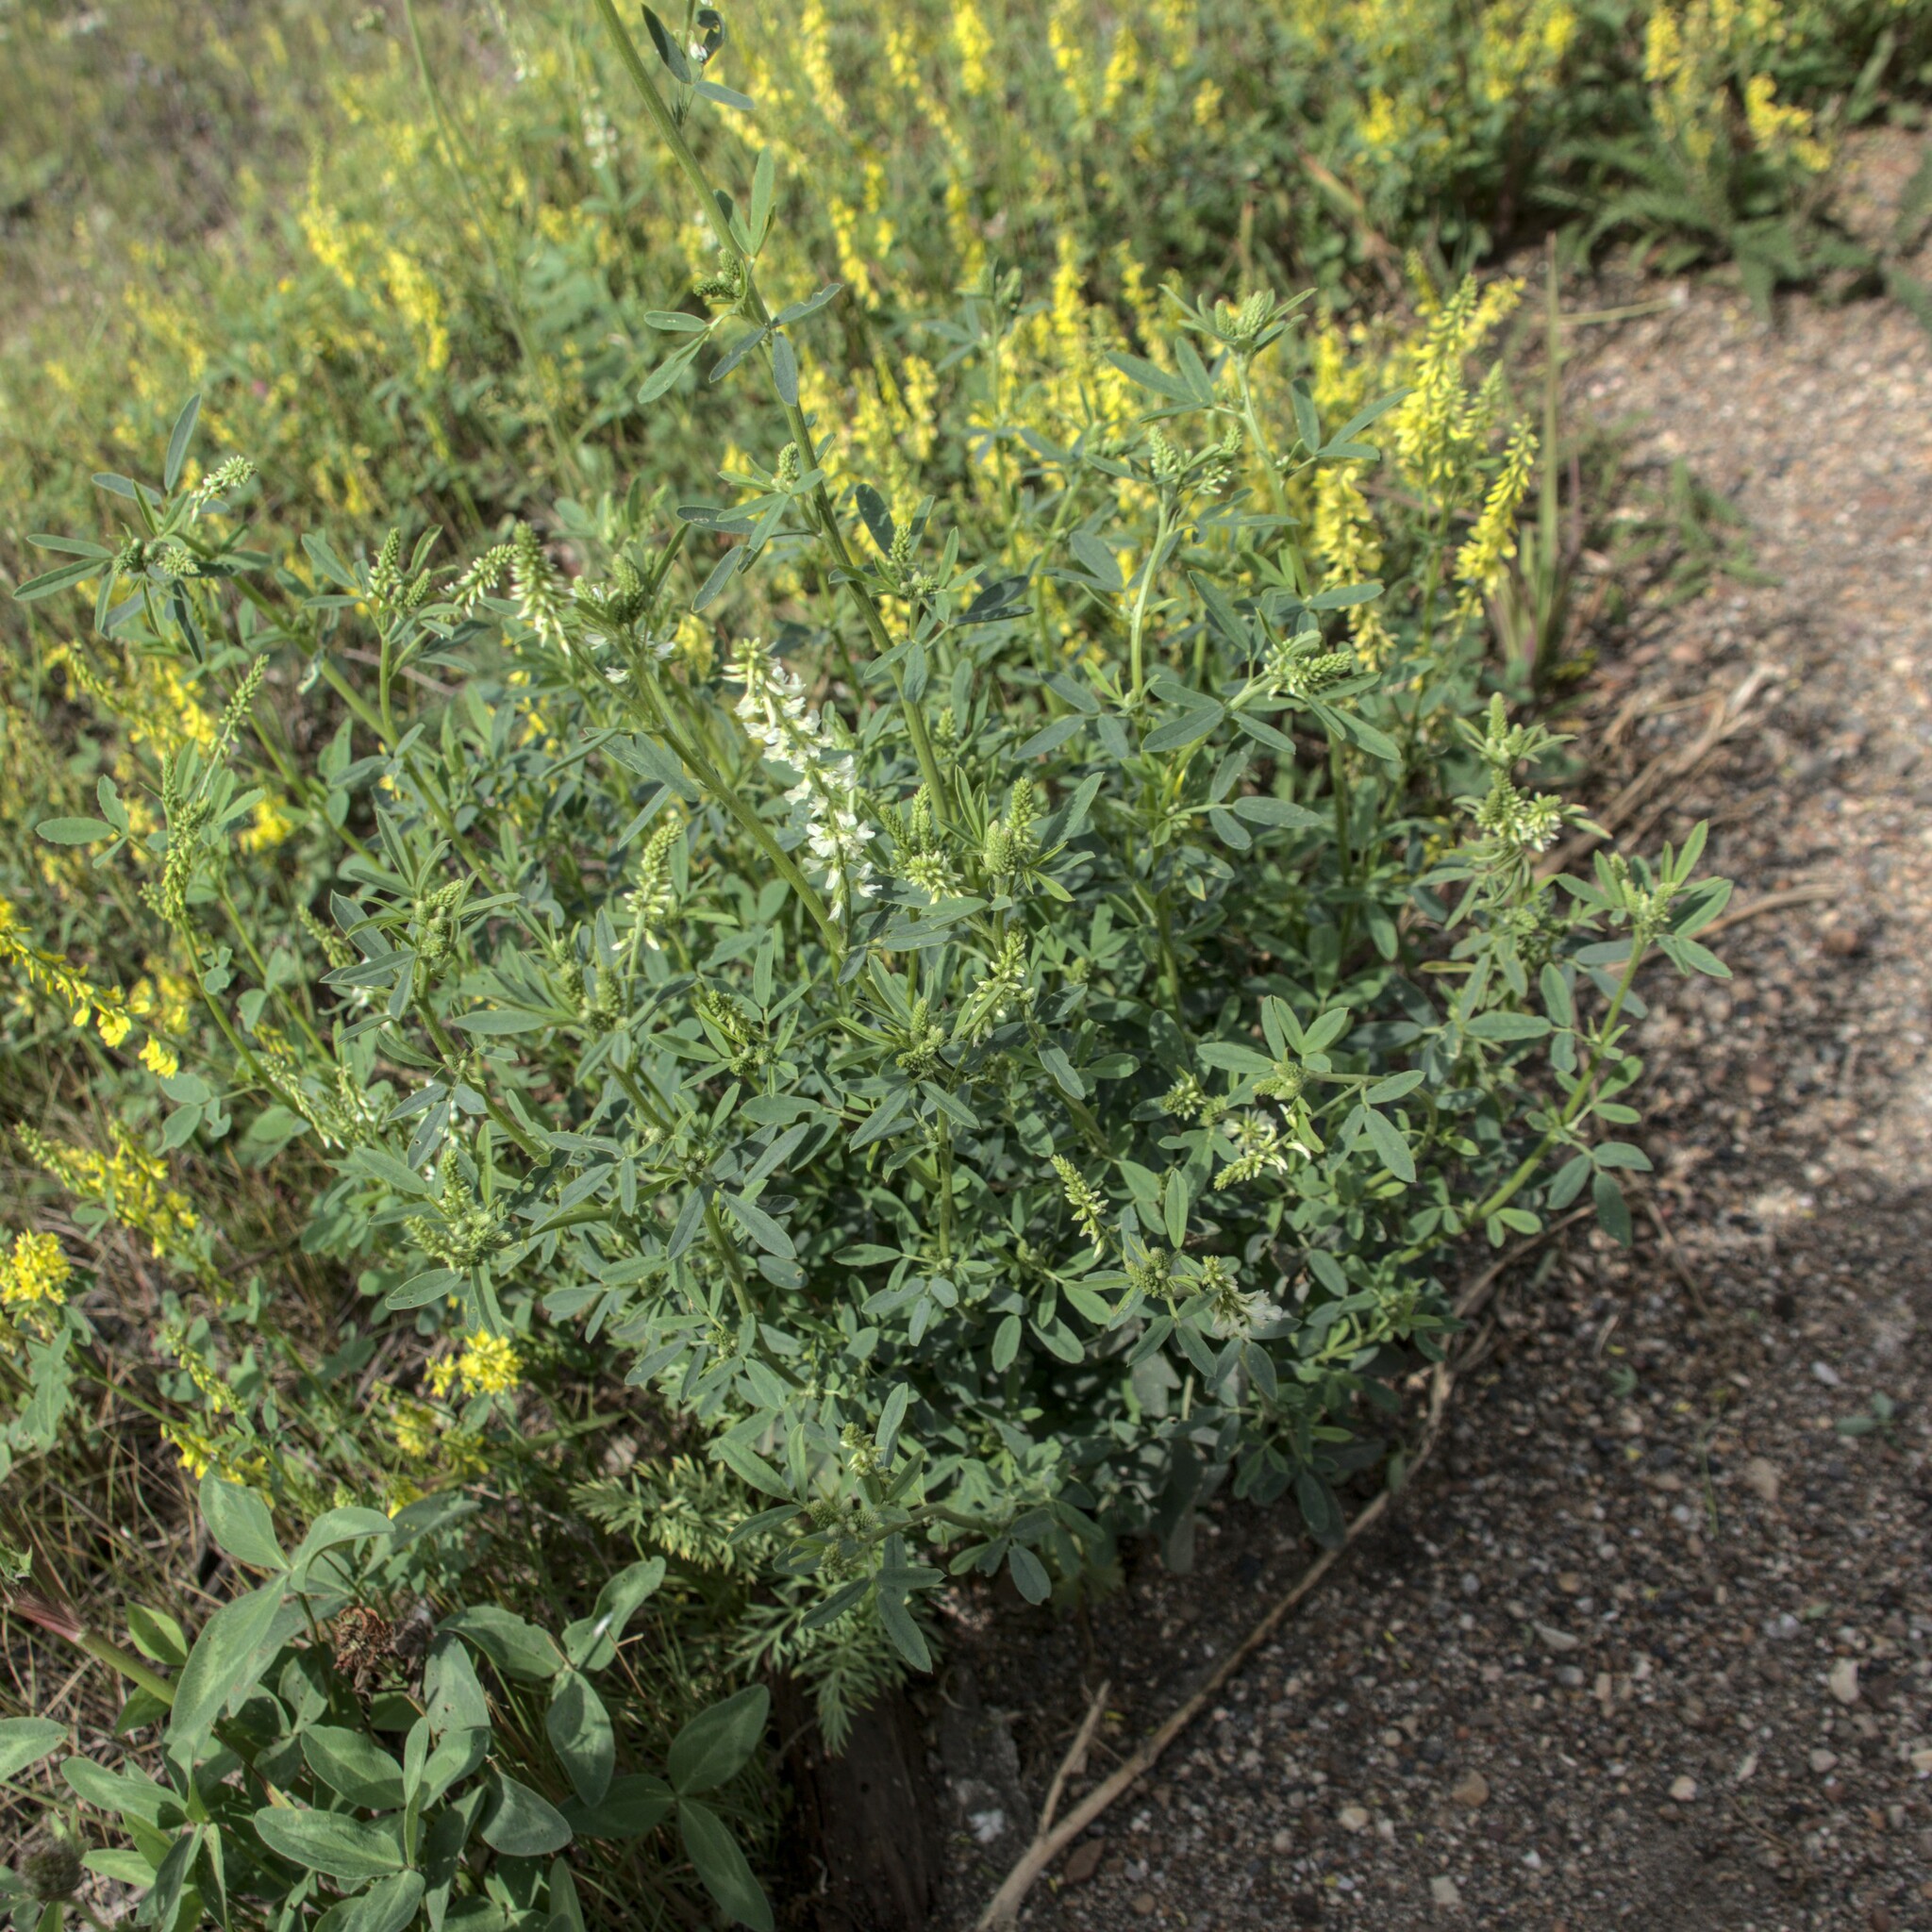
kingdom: Plantae
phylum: Tracheophyta
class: Magnoliopsida
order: Fabales
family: Fabaceae
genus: Melilotus
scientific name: Melilotus albus
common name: White melilot
